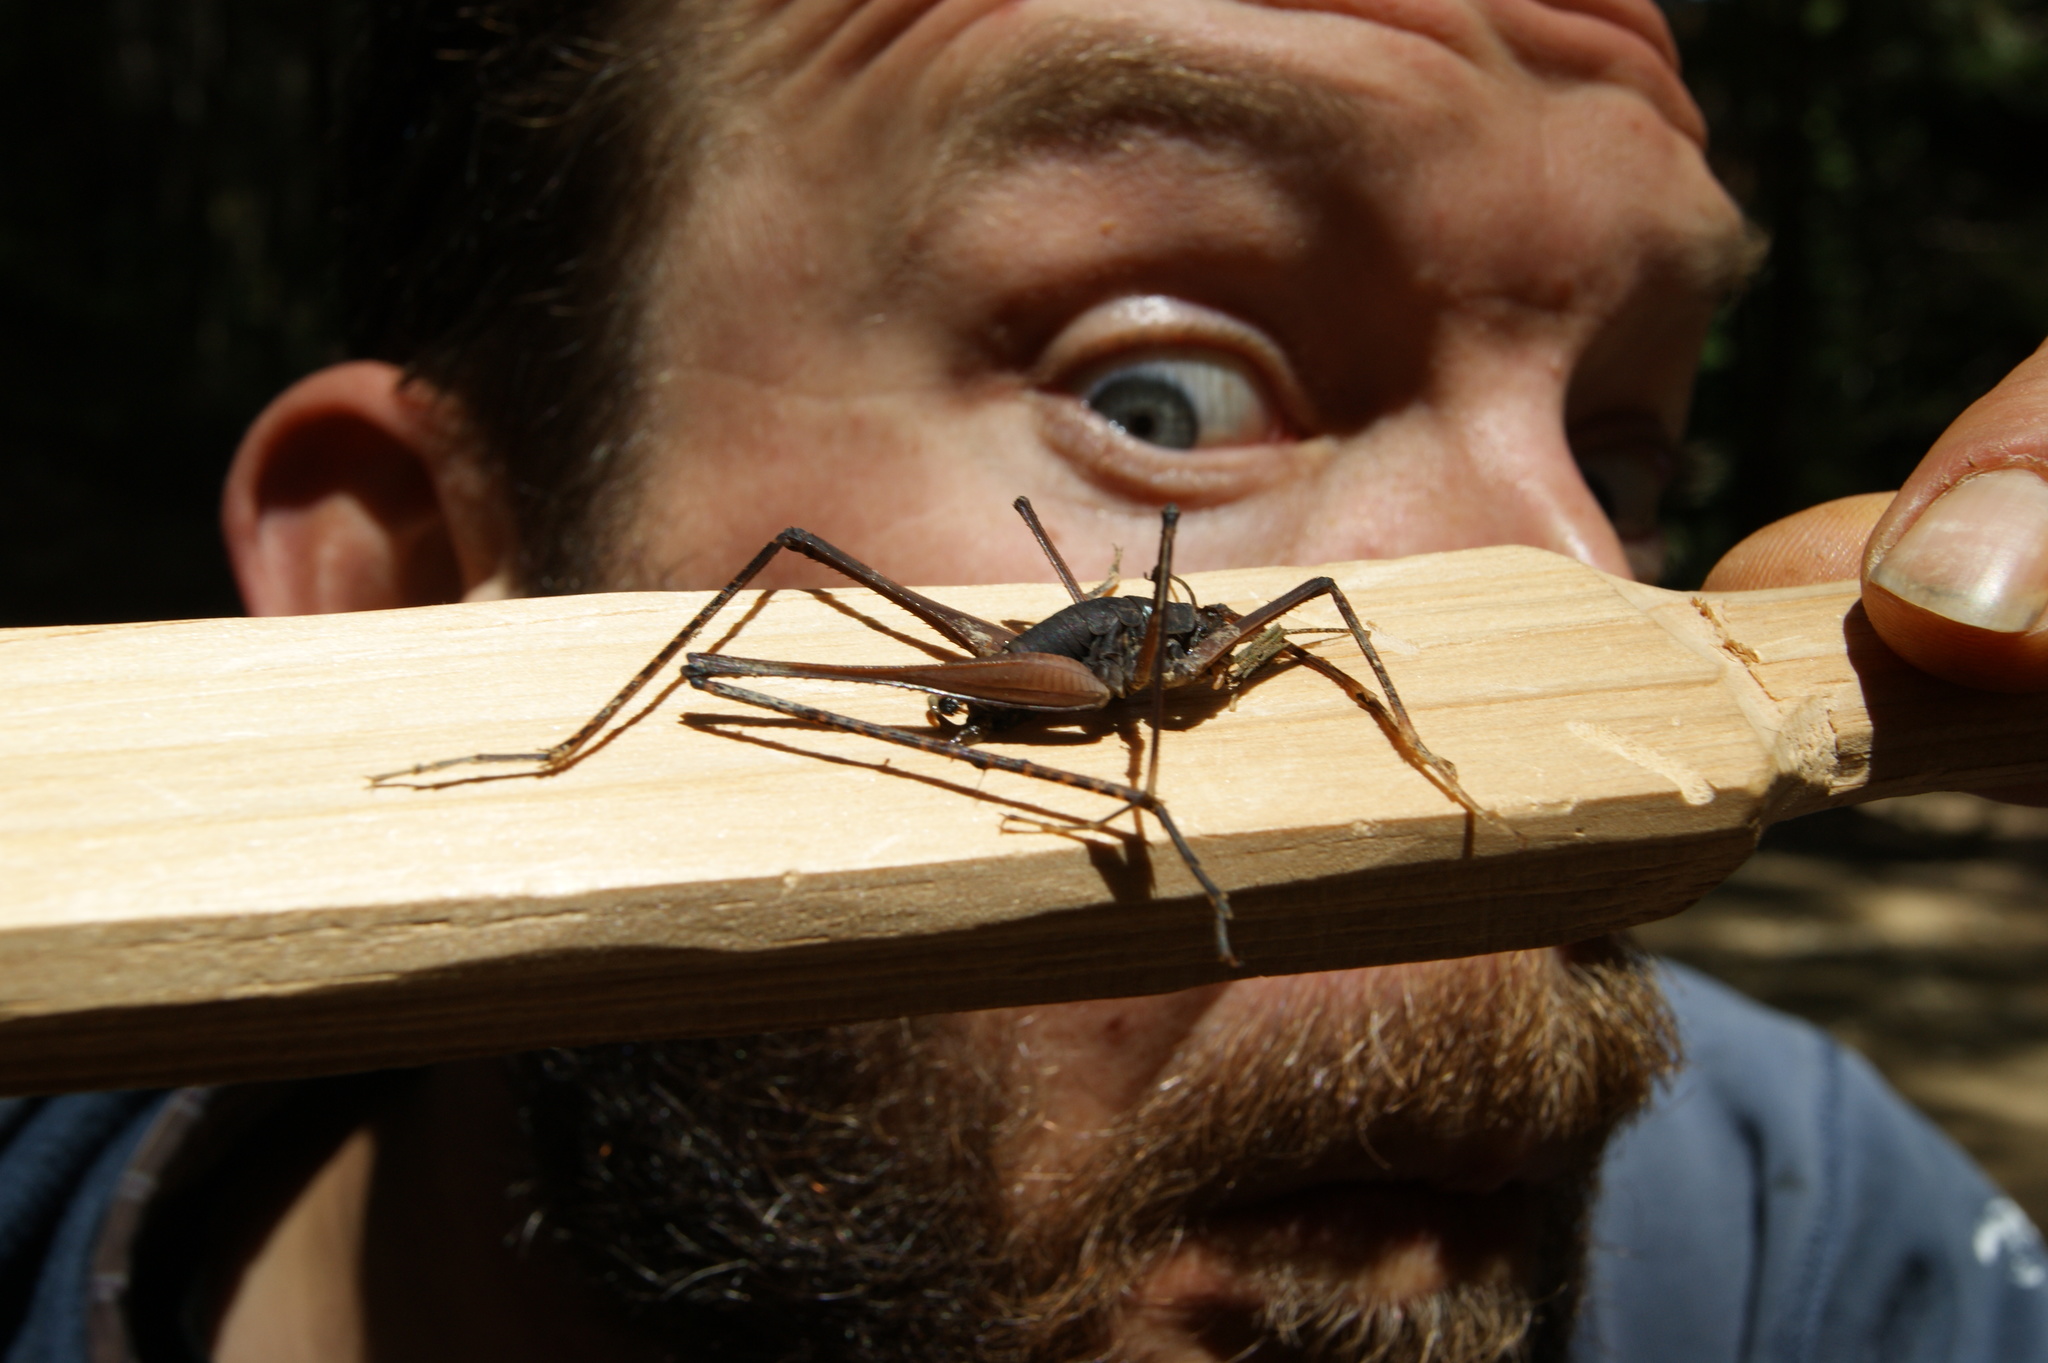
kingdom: Animalia
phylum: Arthropoda
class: Insecta
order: Orthoptera
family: Rhaphidophoridae
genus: Tropidischia
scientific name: Tropidischia xanthostoma
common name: Square-legged camel cricket
